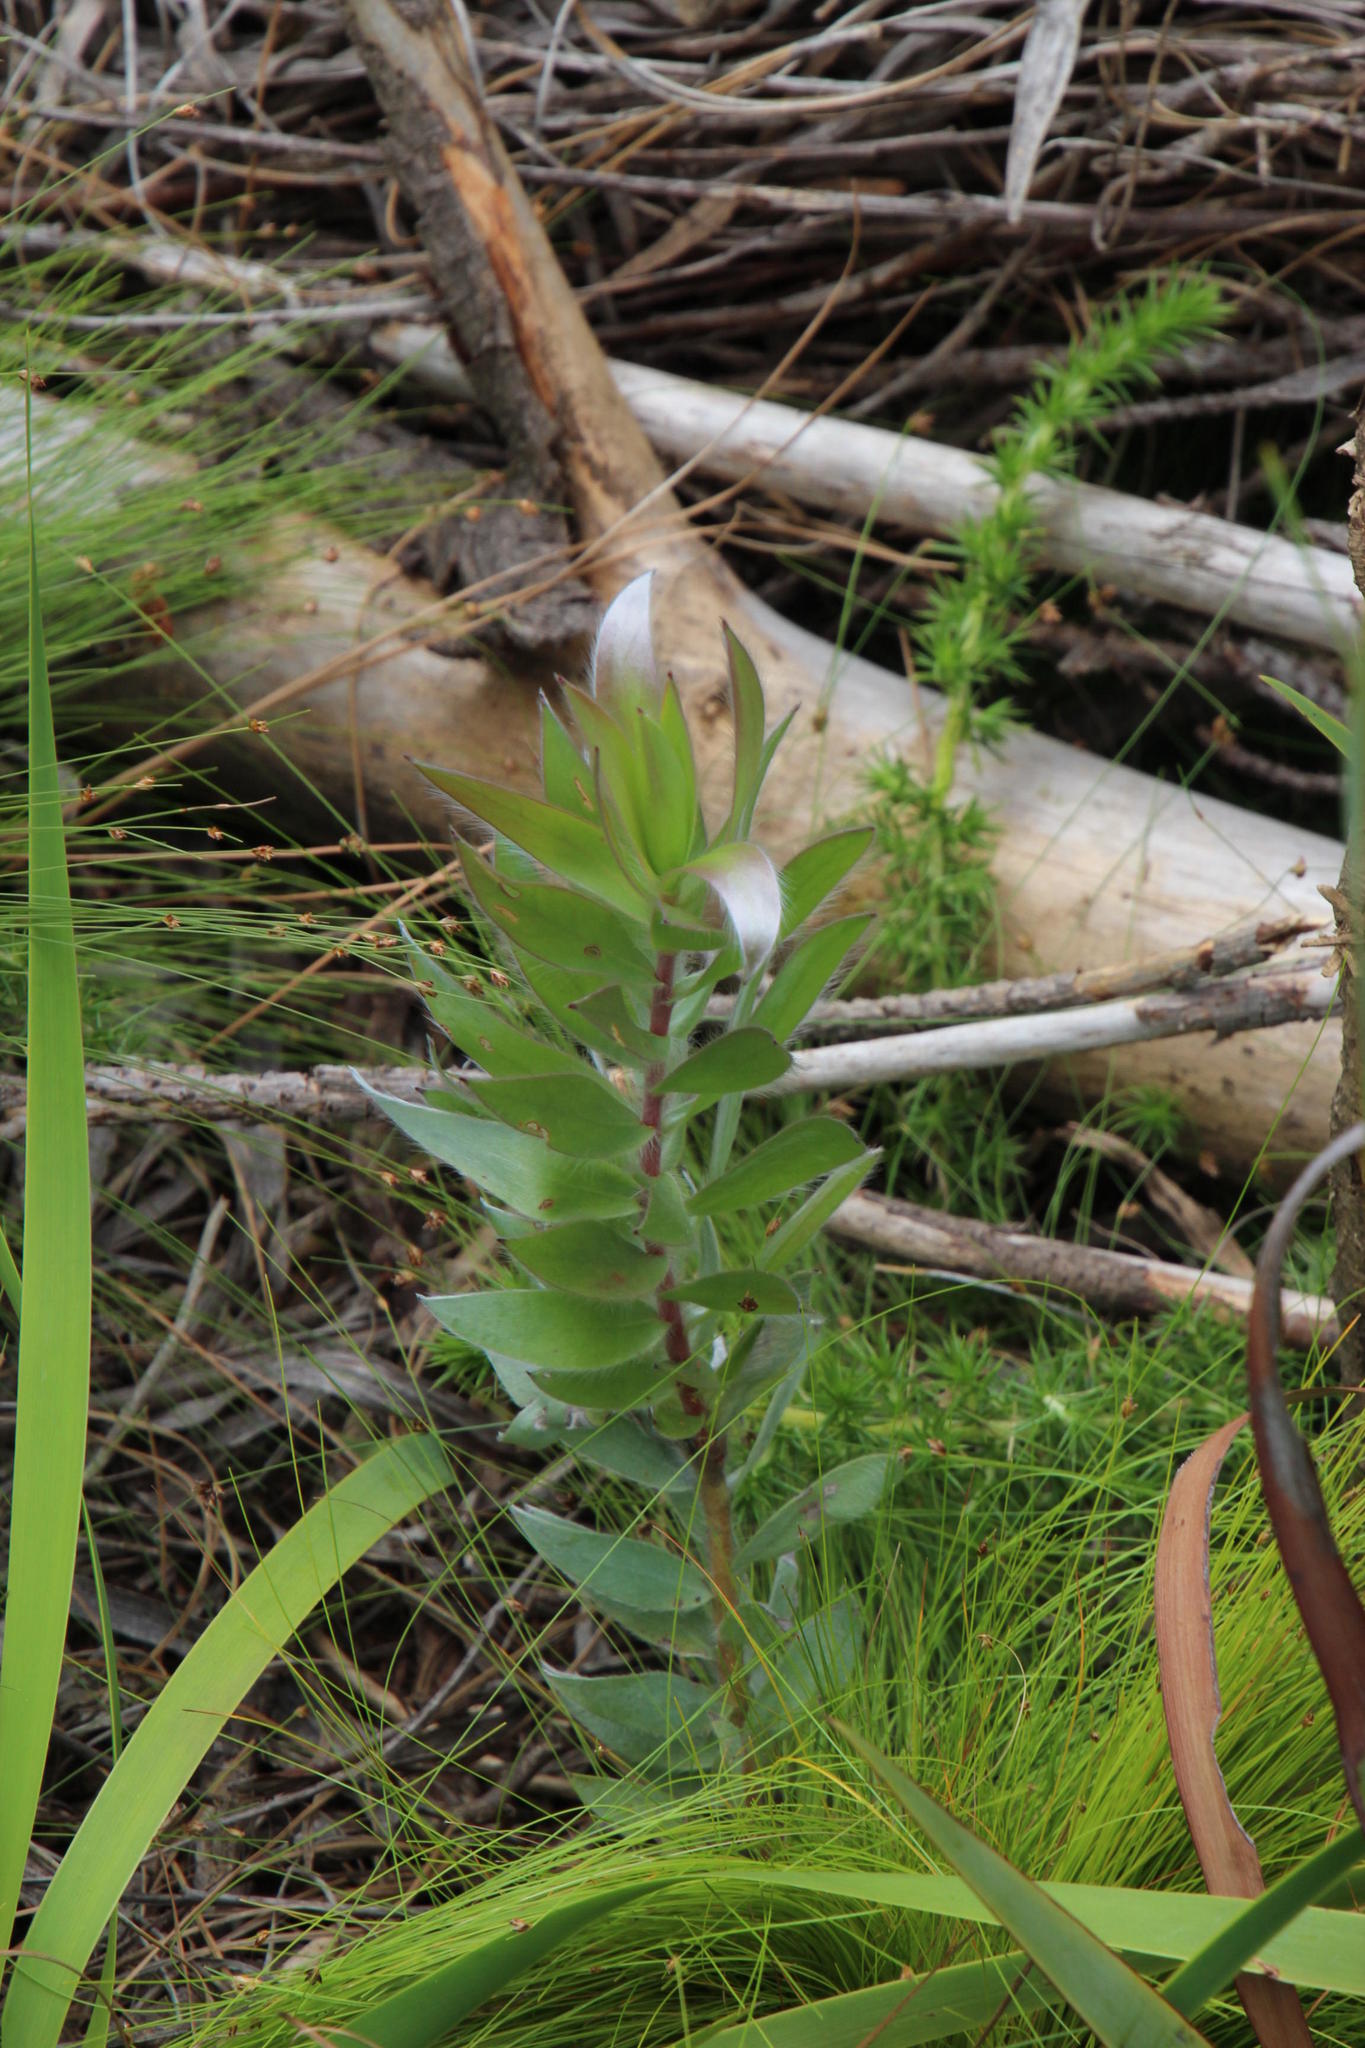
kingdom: Plantae
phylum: Tracheophyta
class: Magnoliopsida
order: Proteales
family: Proteaceae
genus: Leucadendron
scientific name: Leucadendron argenteum
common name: Cape silver tree
